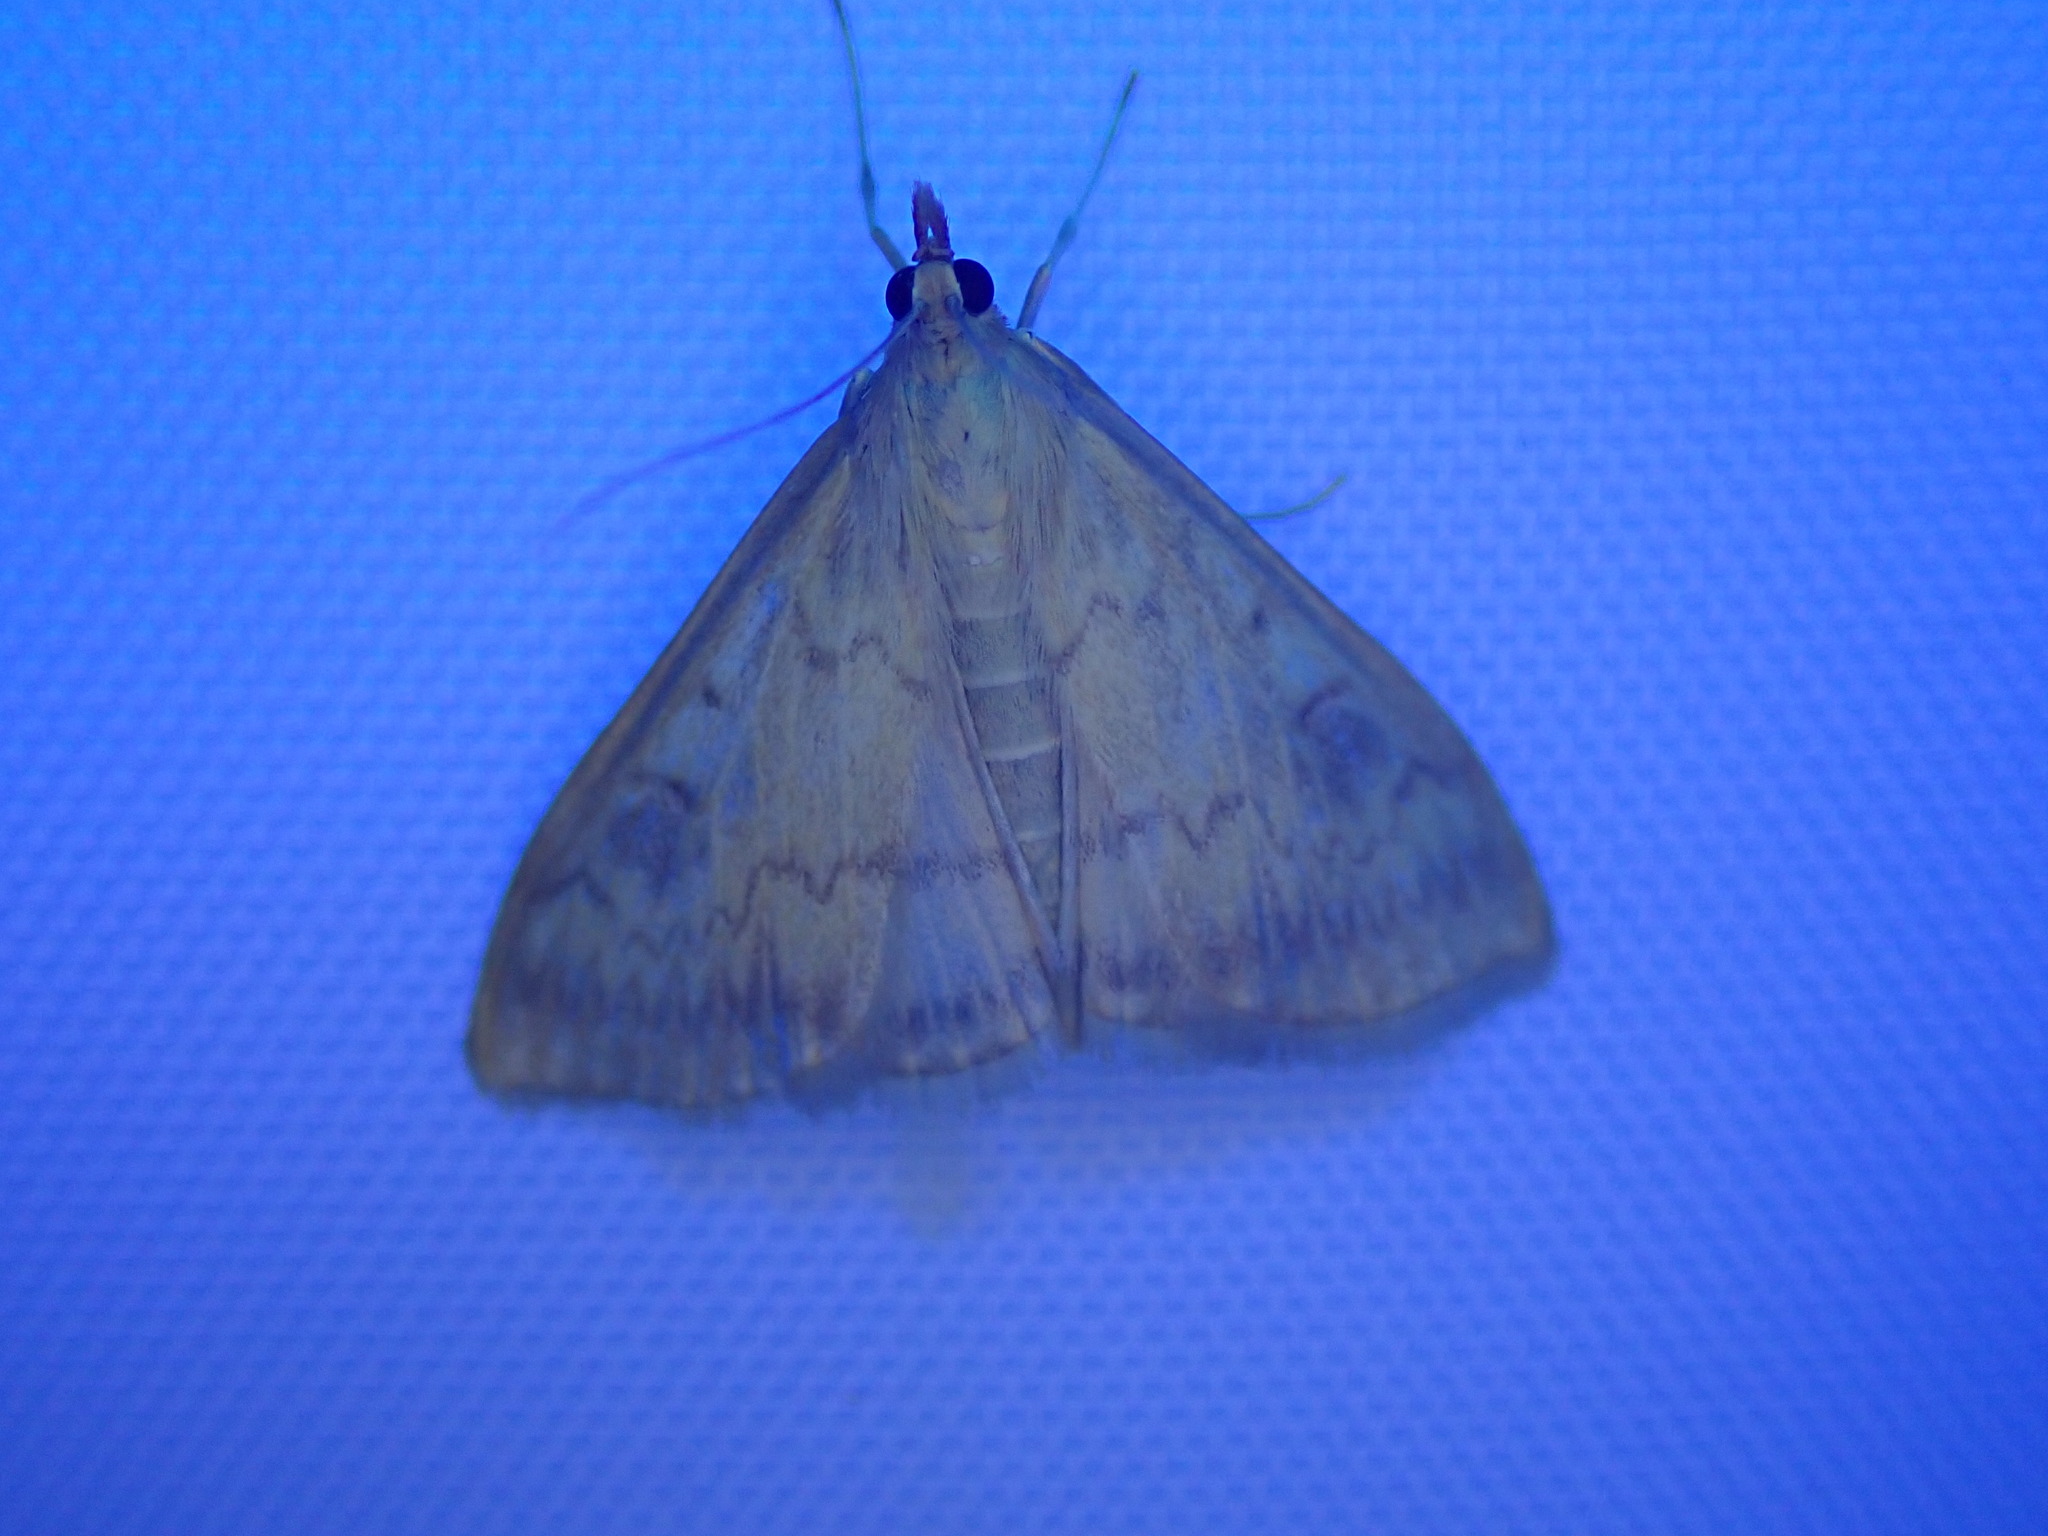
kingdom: Animalia
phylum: Arthropoda
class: Insecta
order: Lepidoptera
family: Crambidae
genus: Ostrinia
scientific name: Ostrinia nubilalis
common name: European corn borer
